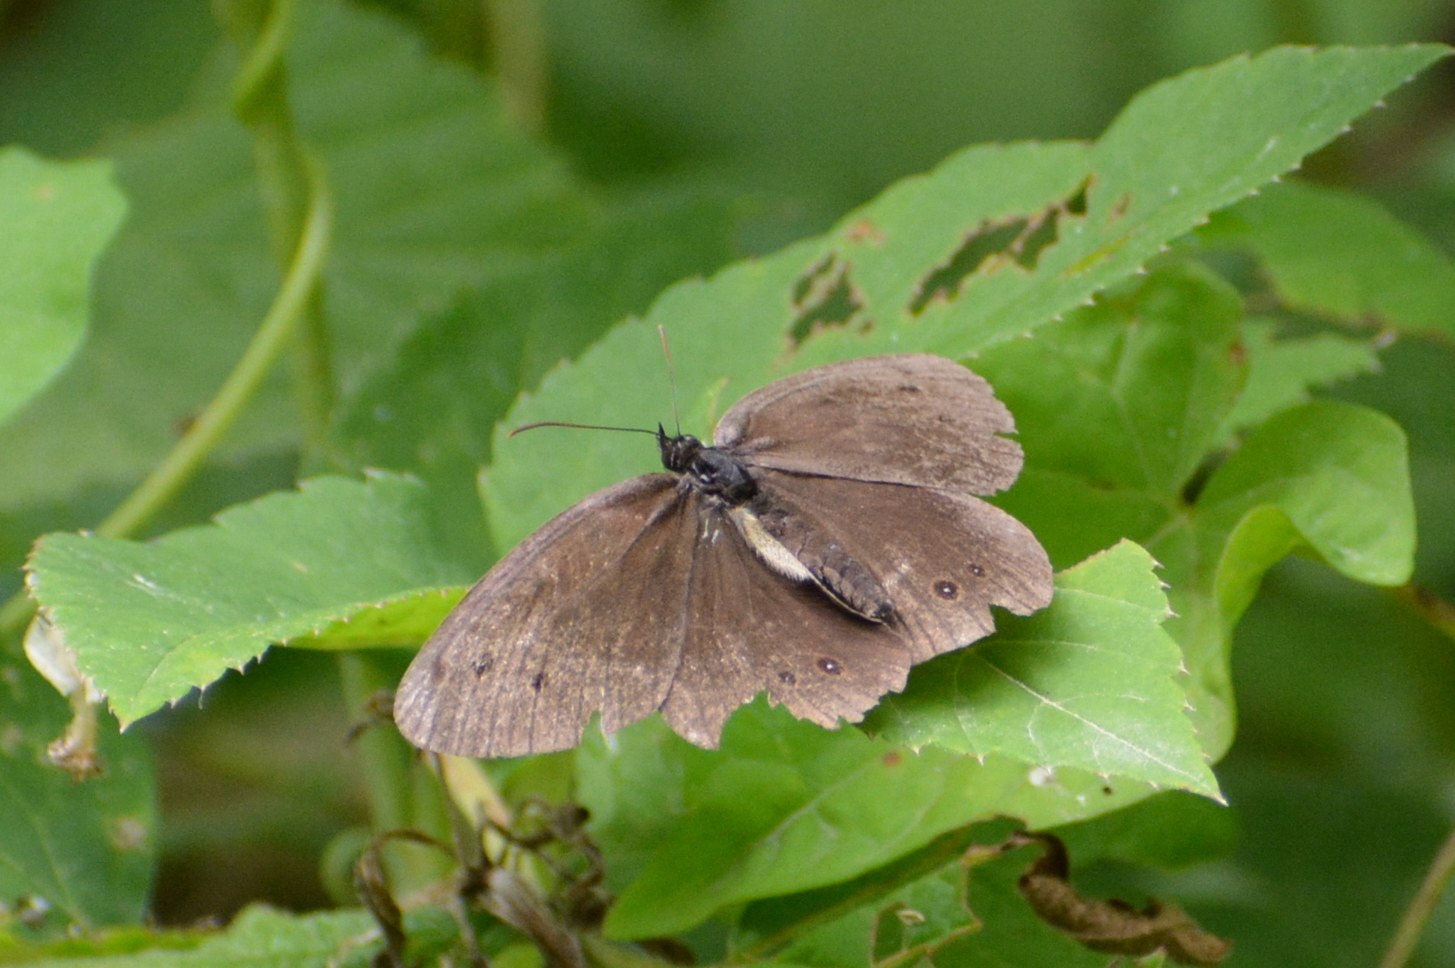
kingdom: Animalia
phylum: Arthropoda
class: Insecta
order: Lepidoptera
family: Nymphalidae
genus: Aphantopus
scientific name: Aphantopus hyperantus
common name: Ringlet
